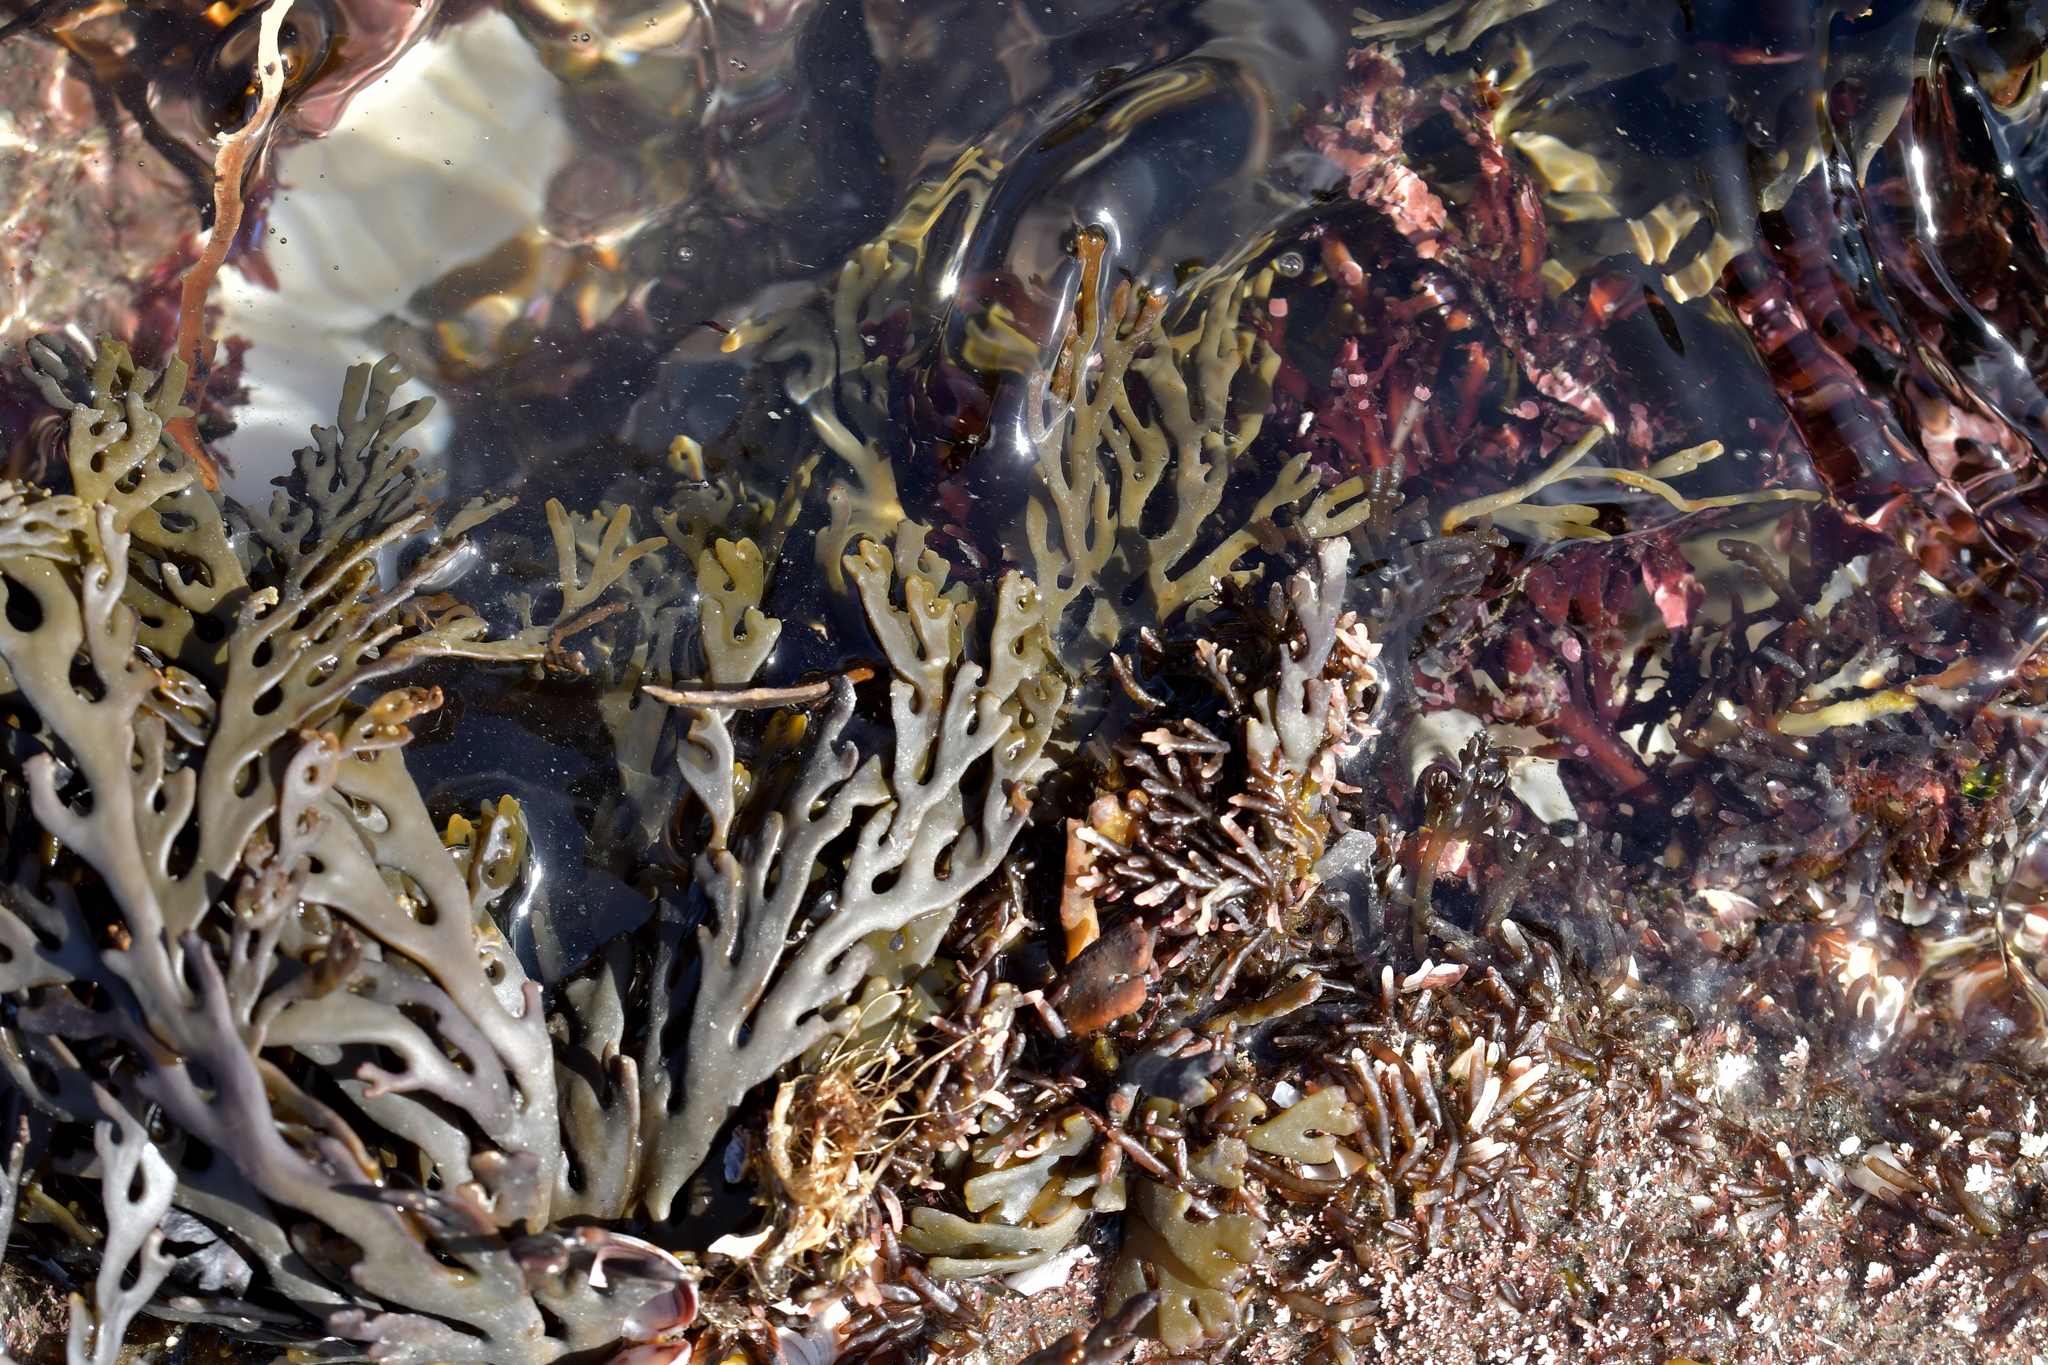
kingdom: Chromista
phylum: Ochrophyta
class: Phaeophyceae
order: Fucales
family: Xiphophoraceae
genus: Xiphophora
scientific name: Xiphophora chondrophylla
